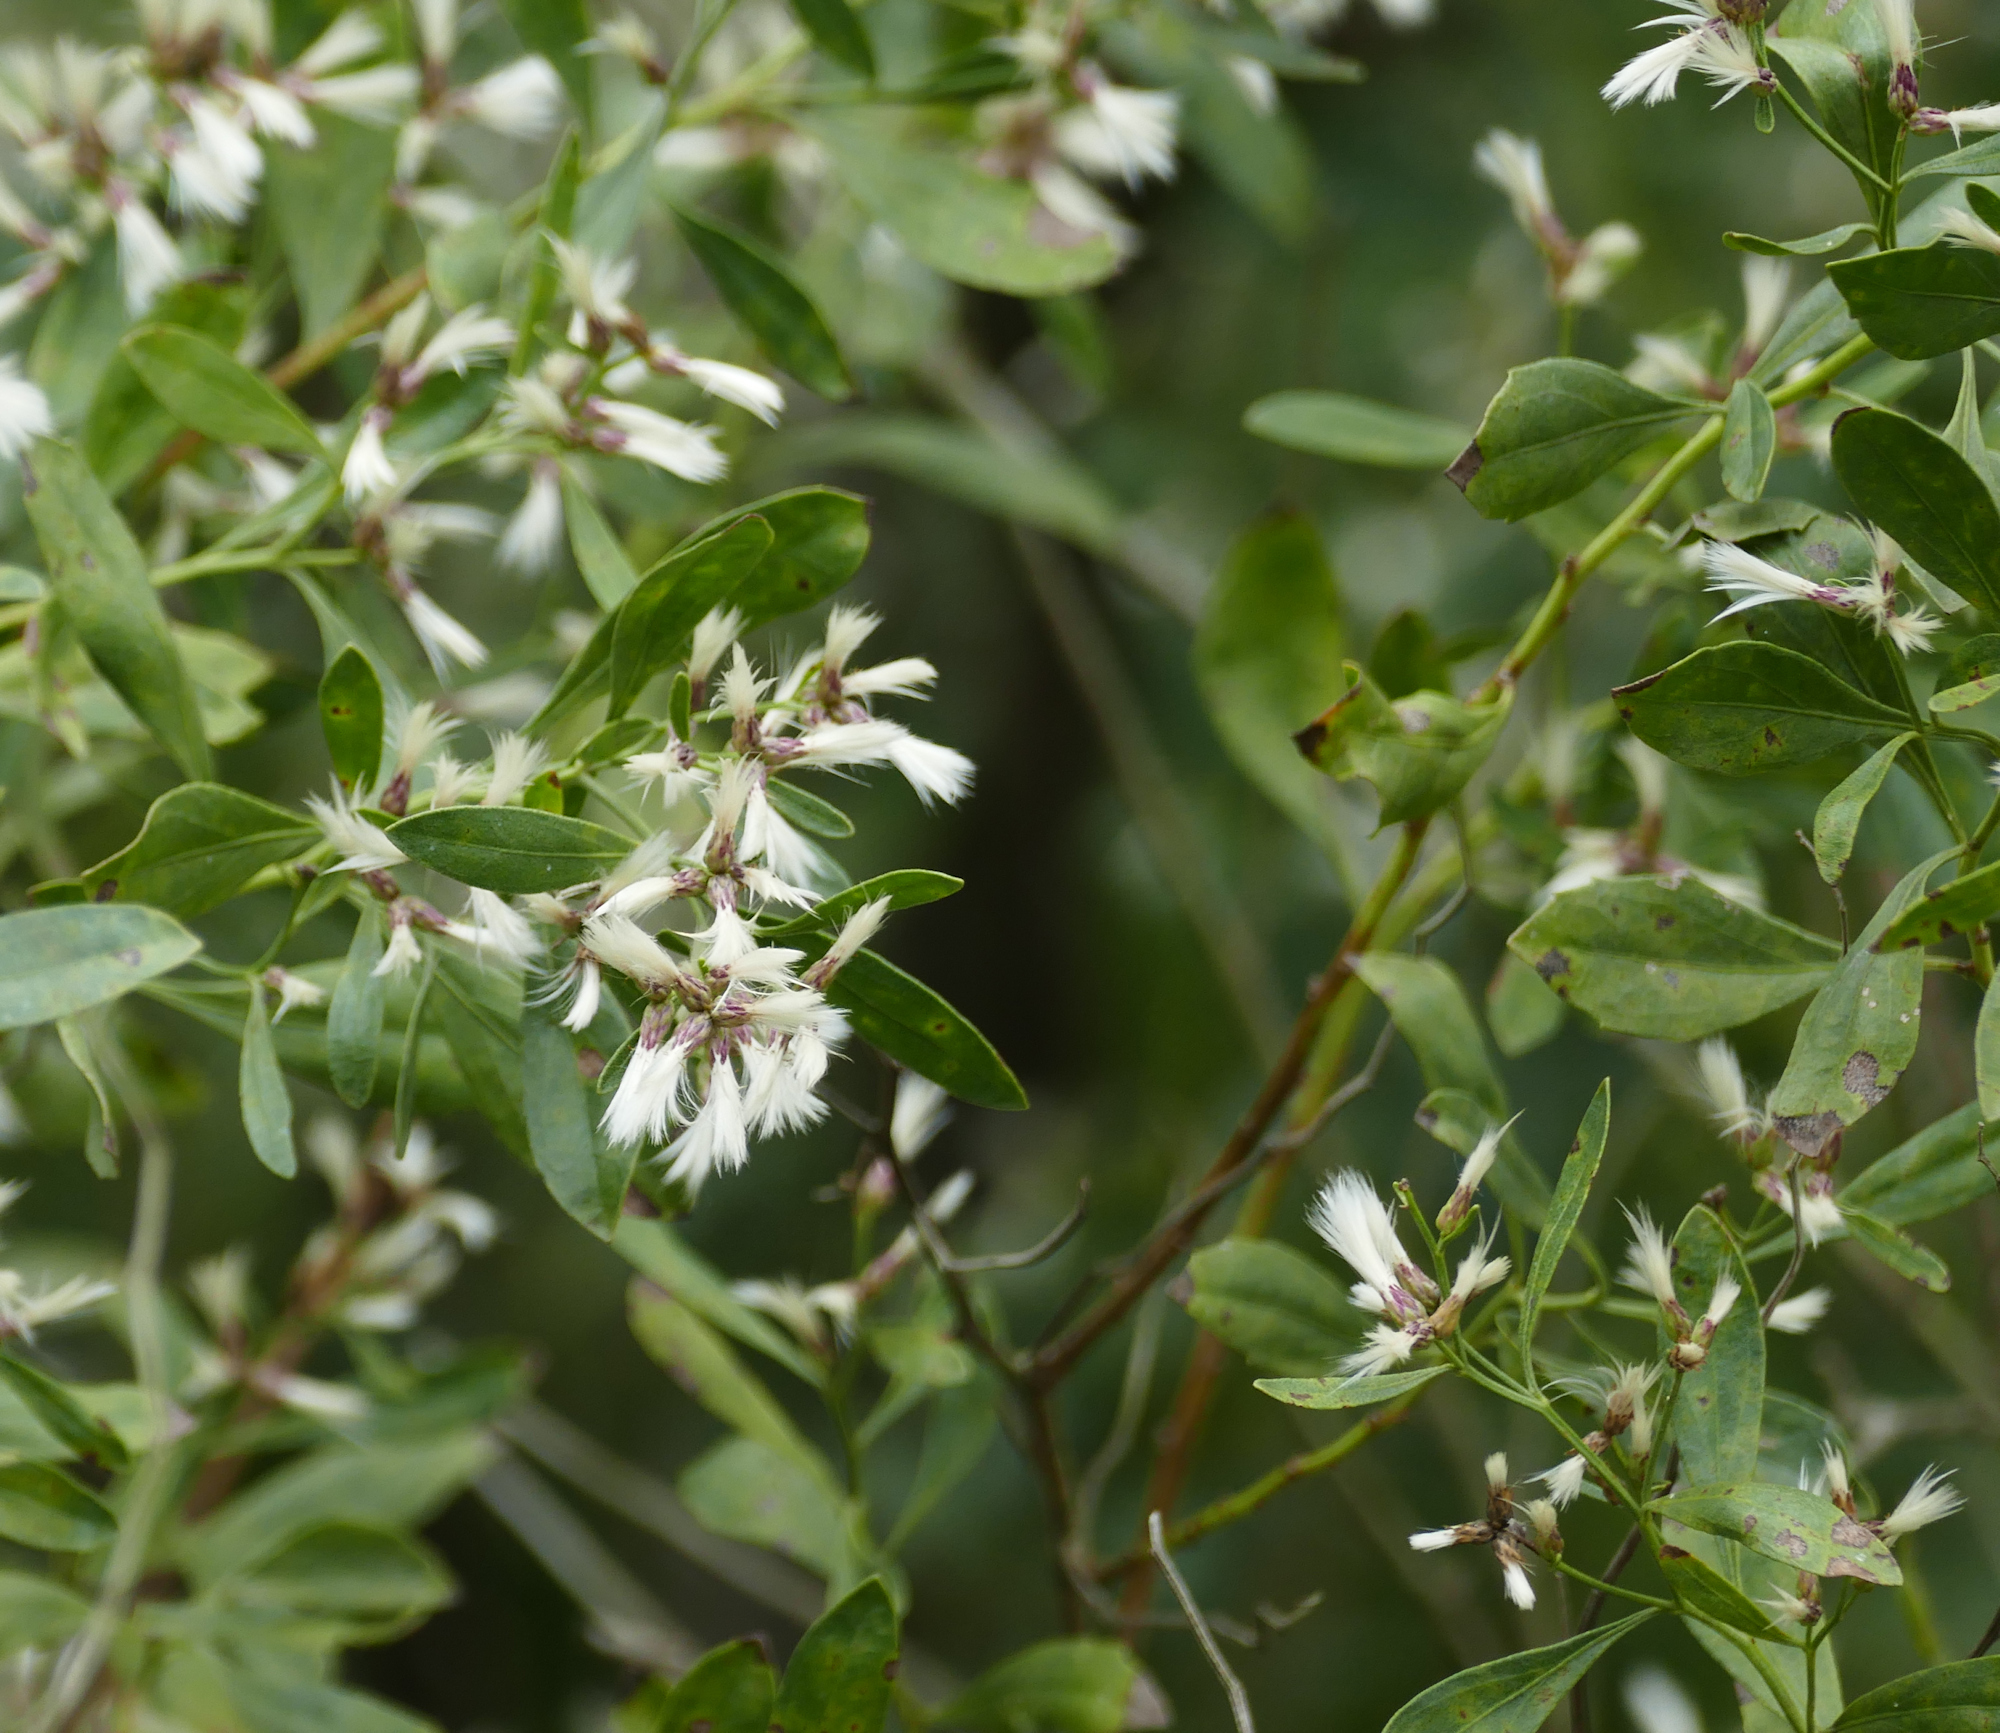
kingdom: Plantae
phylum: Tracheophyta
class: Magnoliopsida
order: Asterales
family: Asteraceae
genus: Baccharis
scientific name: Baccharis halimifolia
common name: Eastern baccharis
